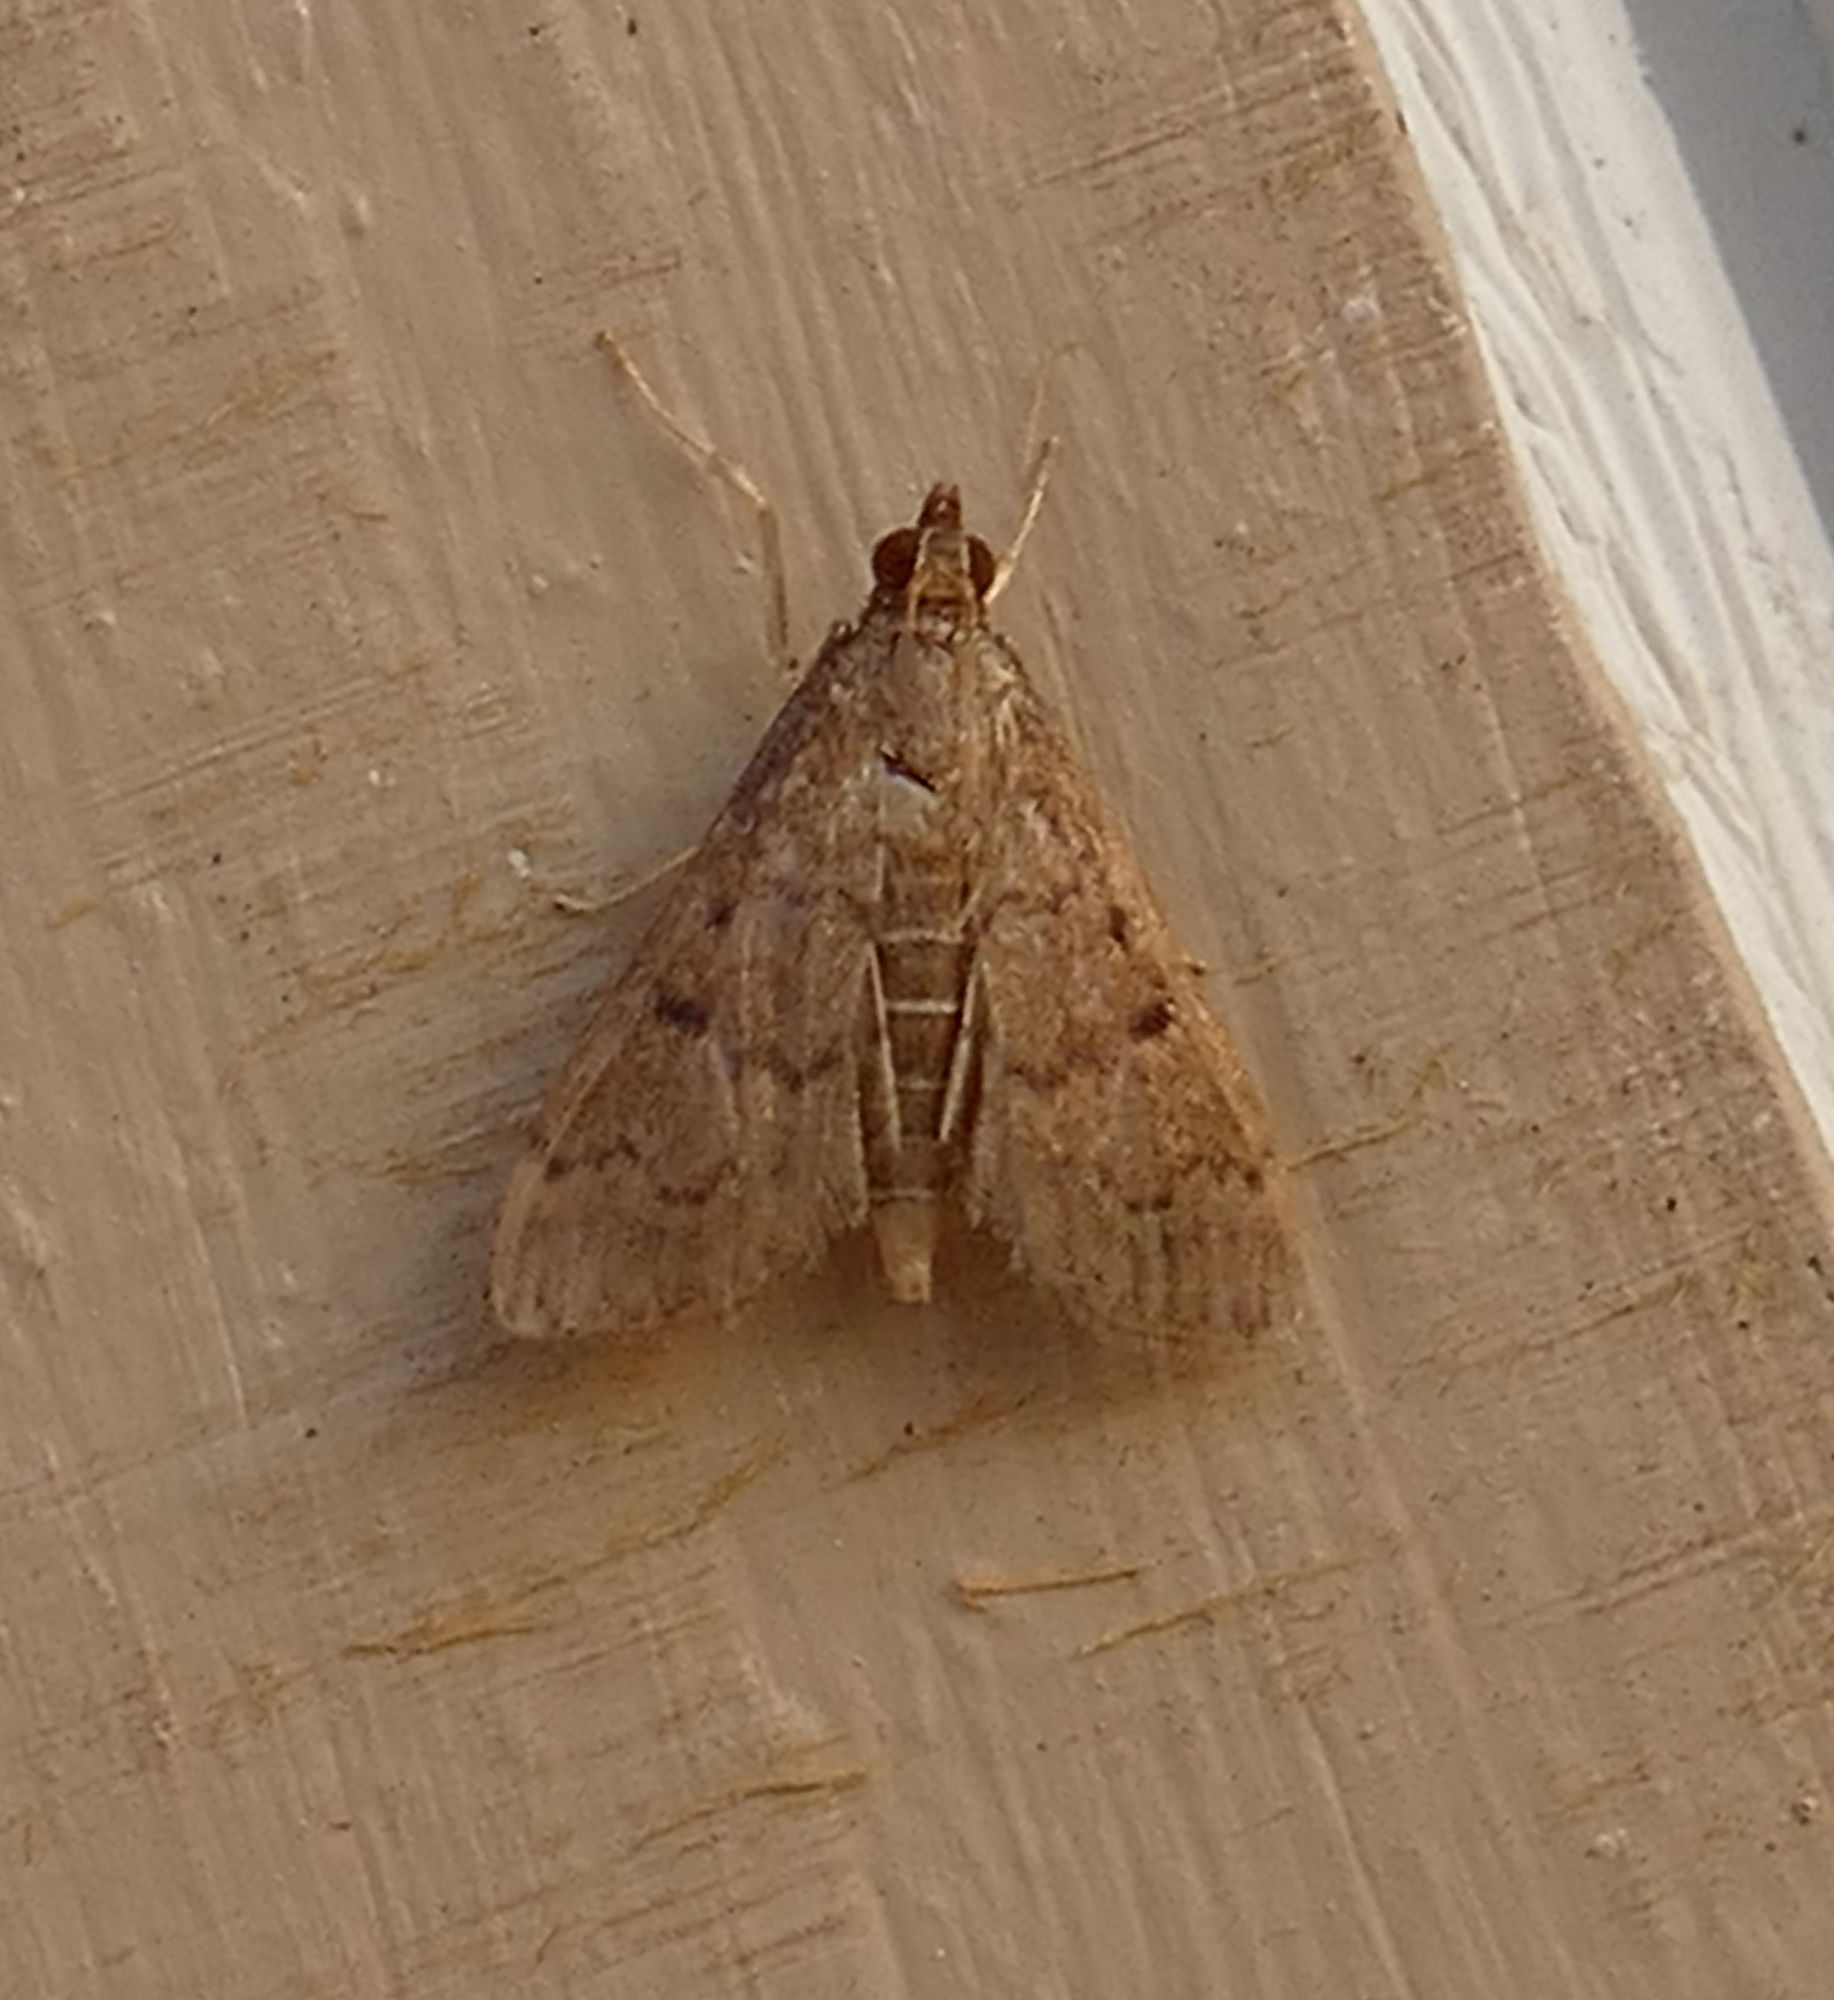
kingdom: Animalia
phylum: Arthropoda
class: Insecta
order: Lepidoptera
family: Crambidae
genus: Herpetogramma
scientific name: Herpetogramma phaeopteralis
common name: Dusky herpetogramma moth
